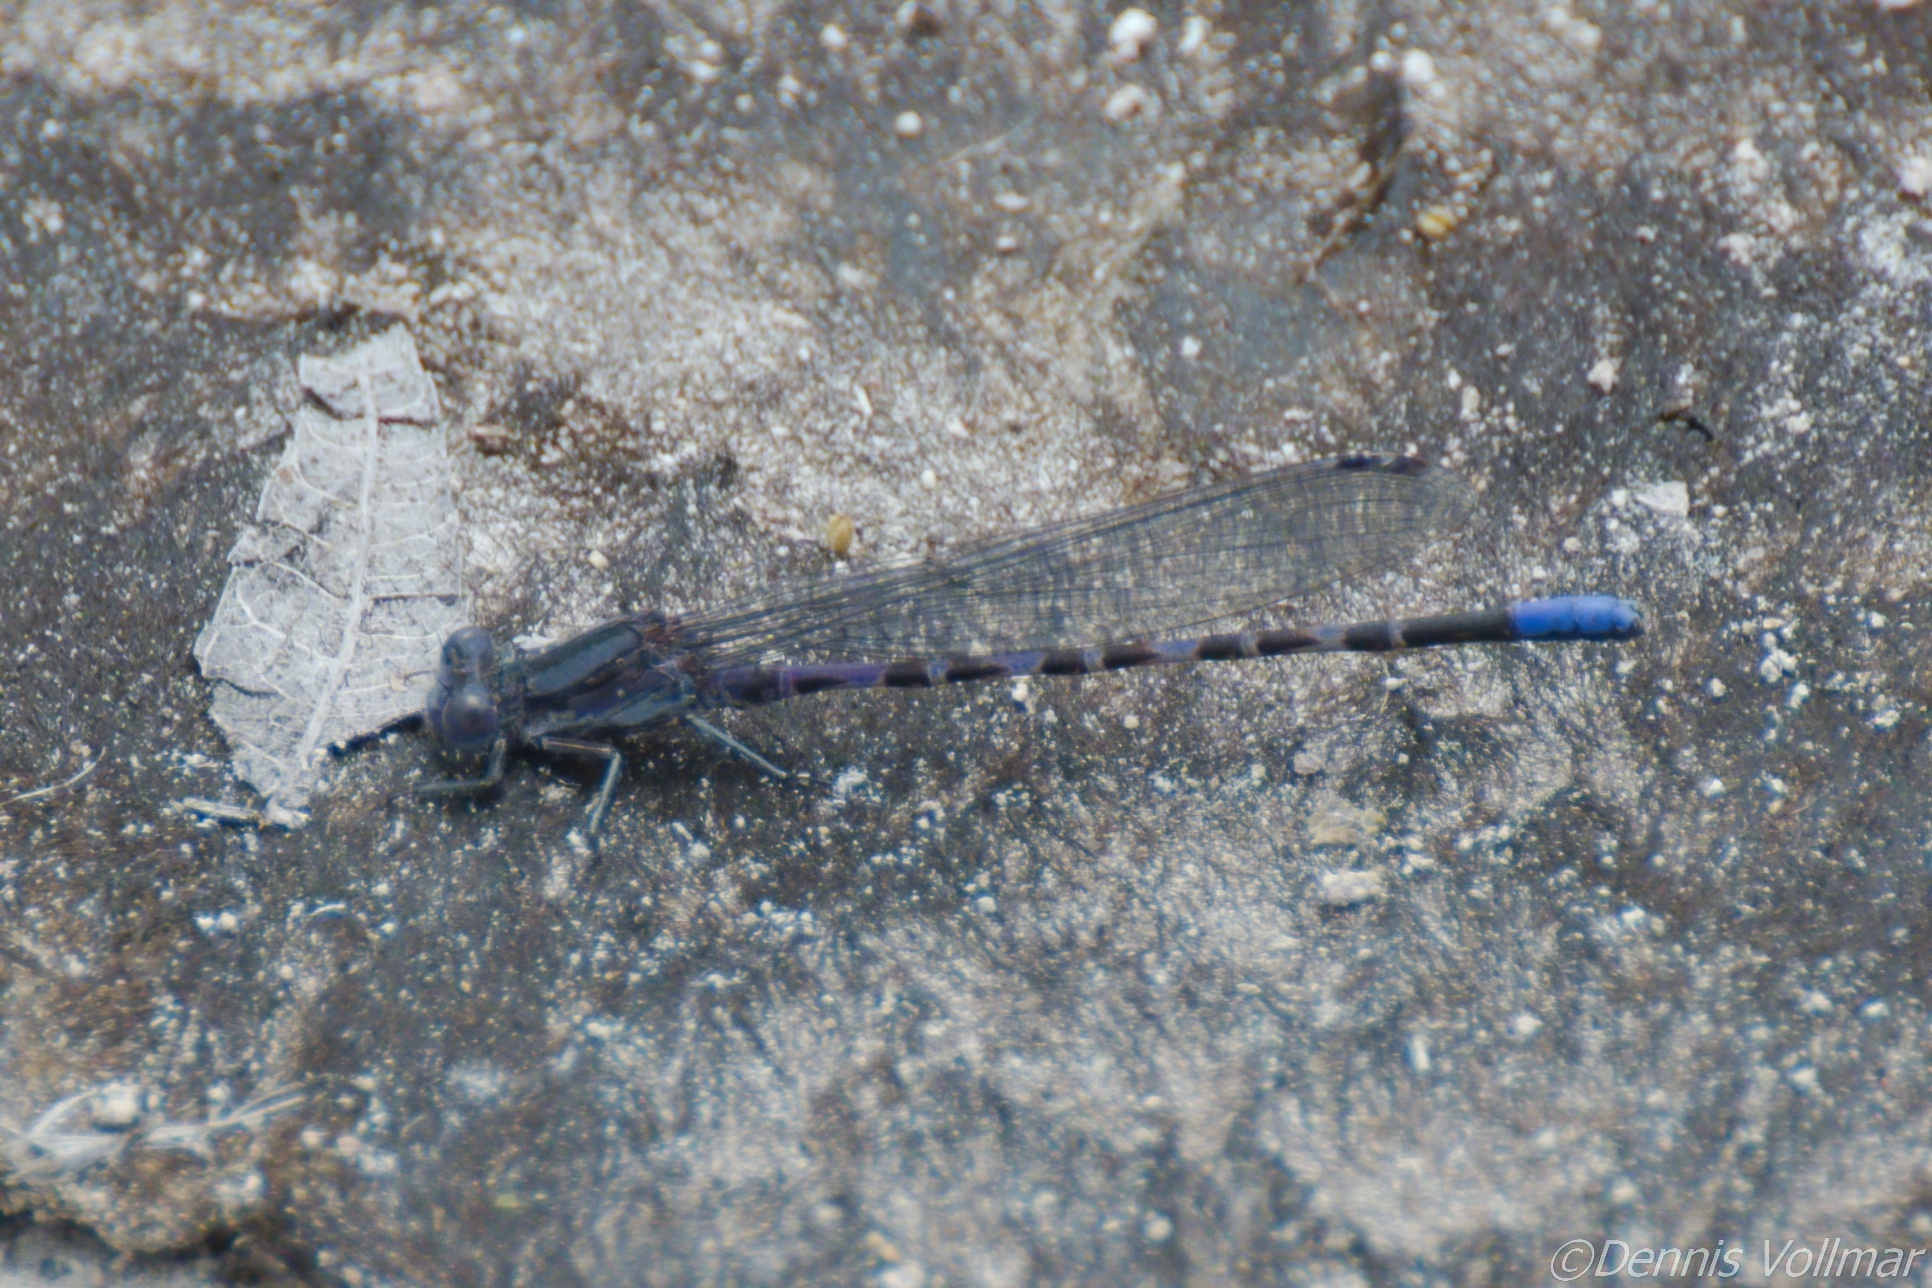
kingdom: Animalia
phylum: Arthropoda
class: Insecta
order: Odonata
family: Coenagrionidae
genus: Argia
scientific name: Argia immunda
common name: Kiowa dancer
